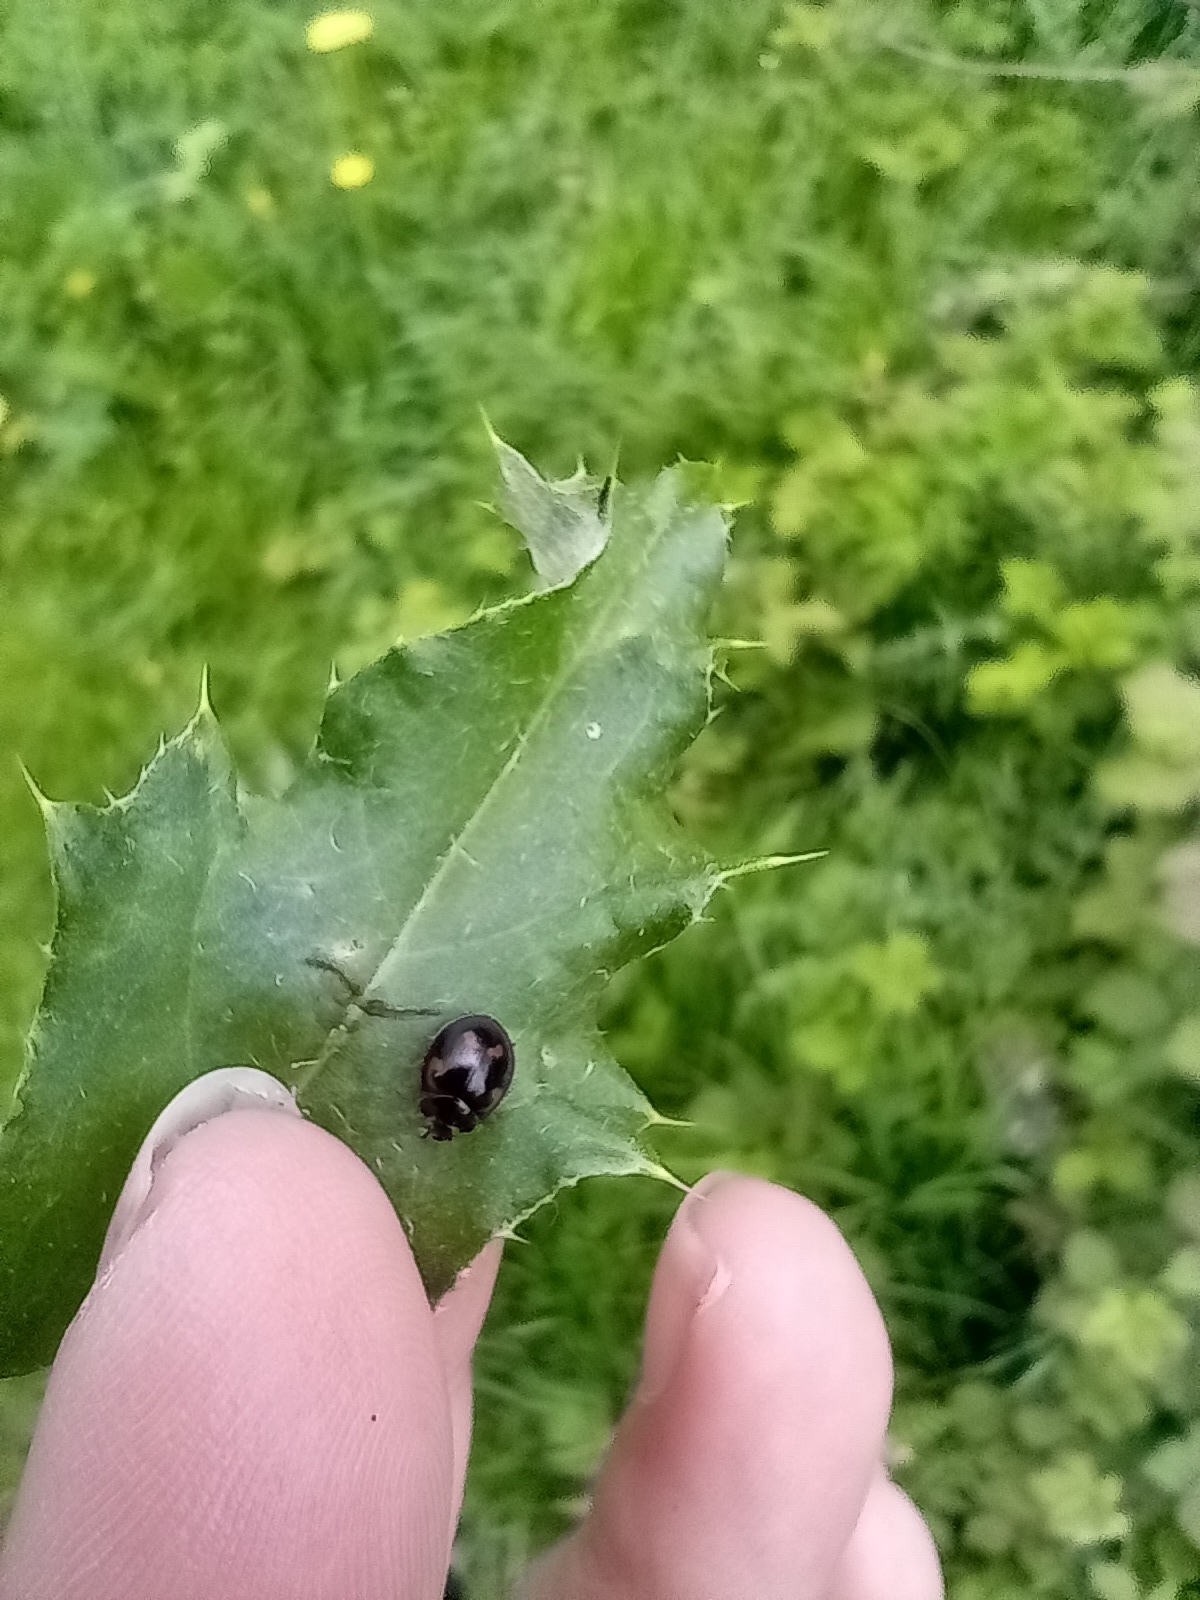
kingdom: Animalia
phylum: Arthropoda
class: Insecta
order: Coleoptera
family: Coccinellidae
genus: Brumus
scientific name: Brumus quadripustulatus
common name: Ladybird beetle
